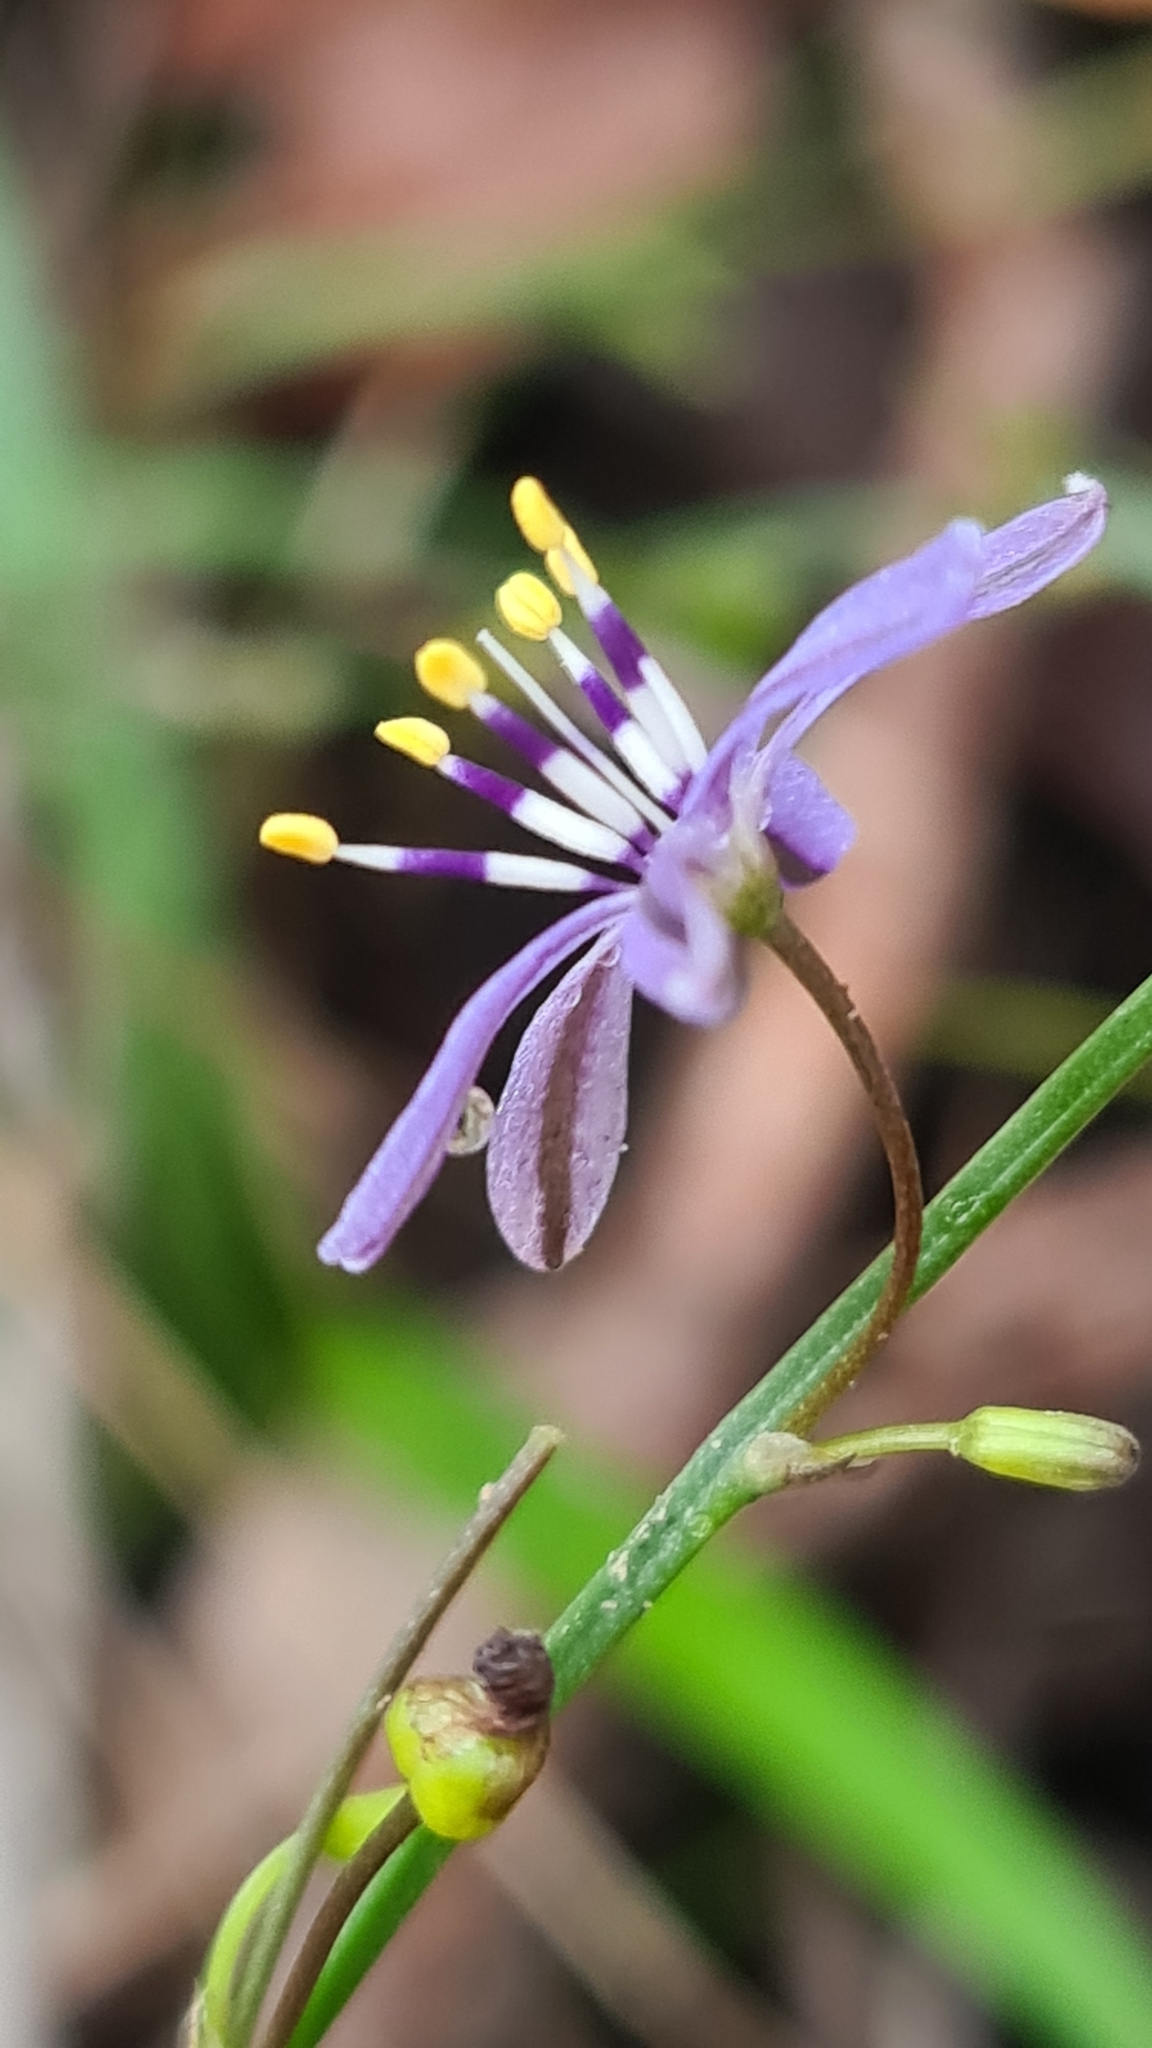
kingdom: Plantae
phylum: Tracheophyta
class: Liliopsida
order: Asparagales
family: Asphodelaceae
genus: Caesia
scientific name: Caesia parviflora
